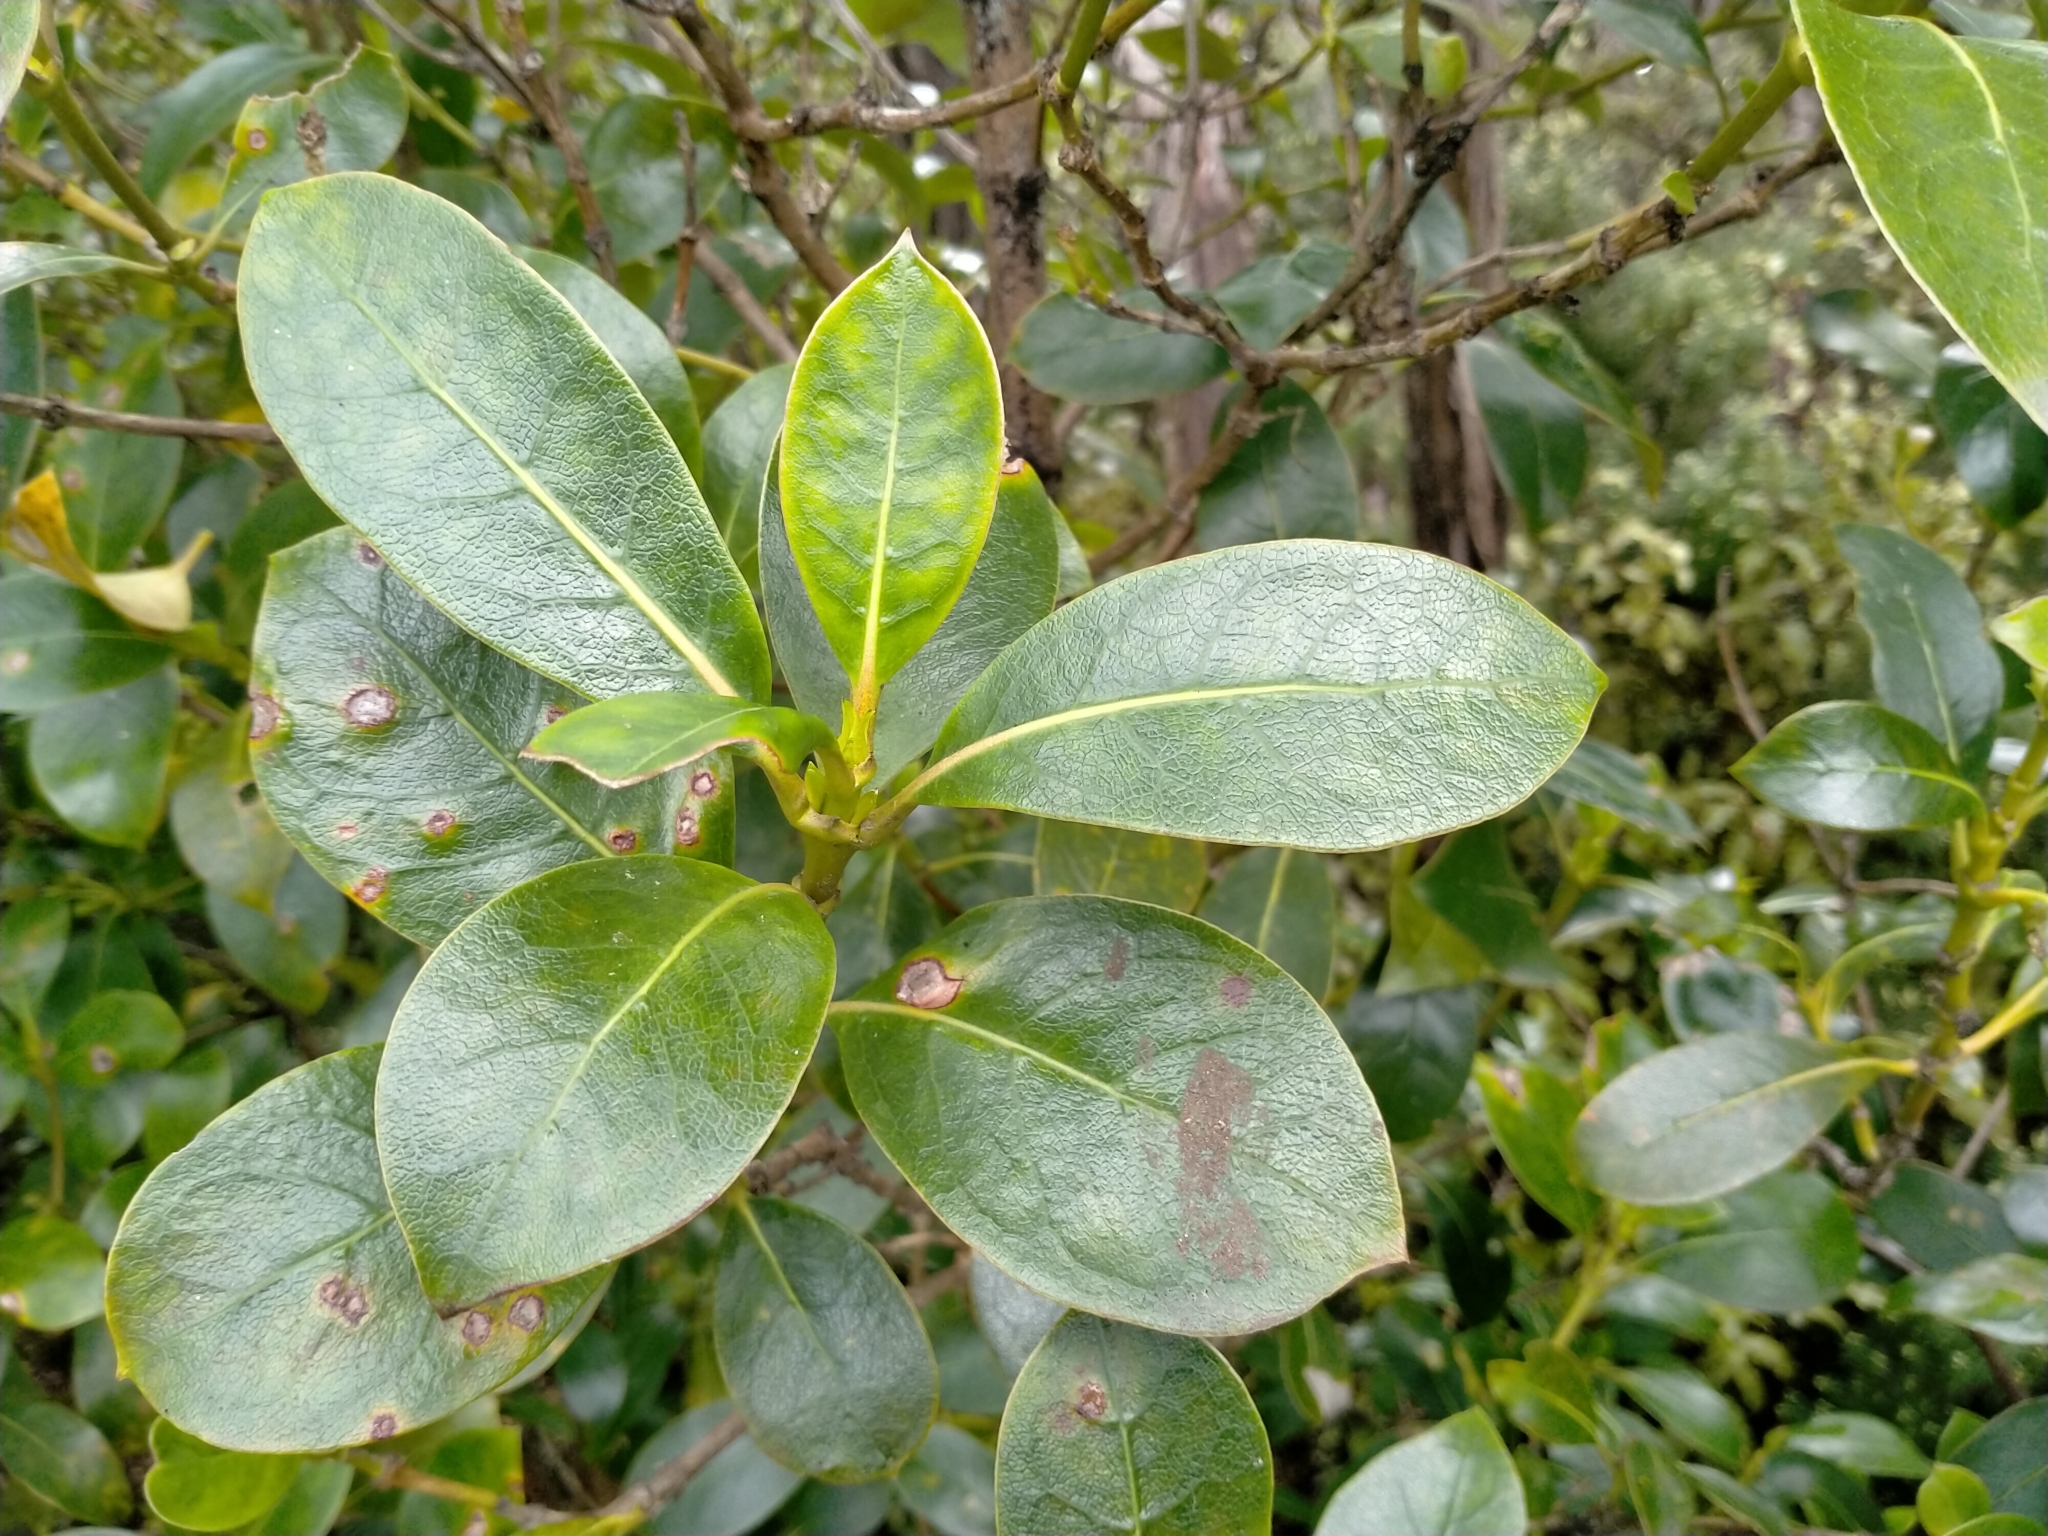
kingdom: Plantae
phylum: Tracheophyta
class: Magnoliopsida
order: Gentianales
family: Rubiaceae
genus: Coprosma
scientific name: Coprosma lucida
